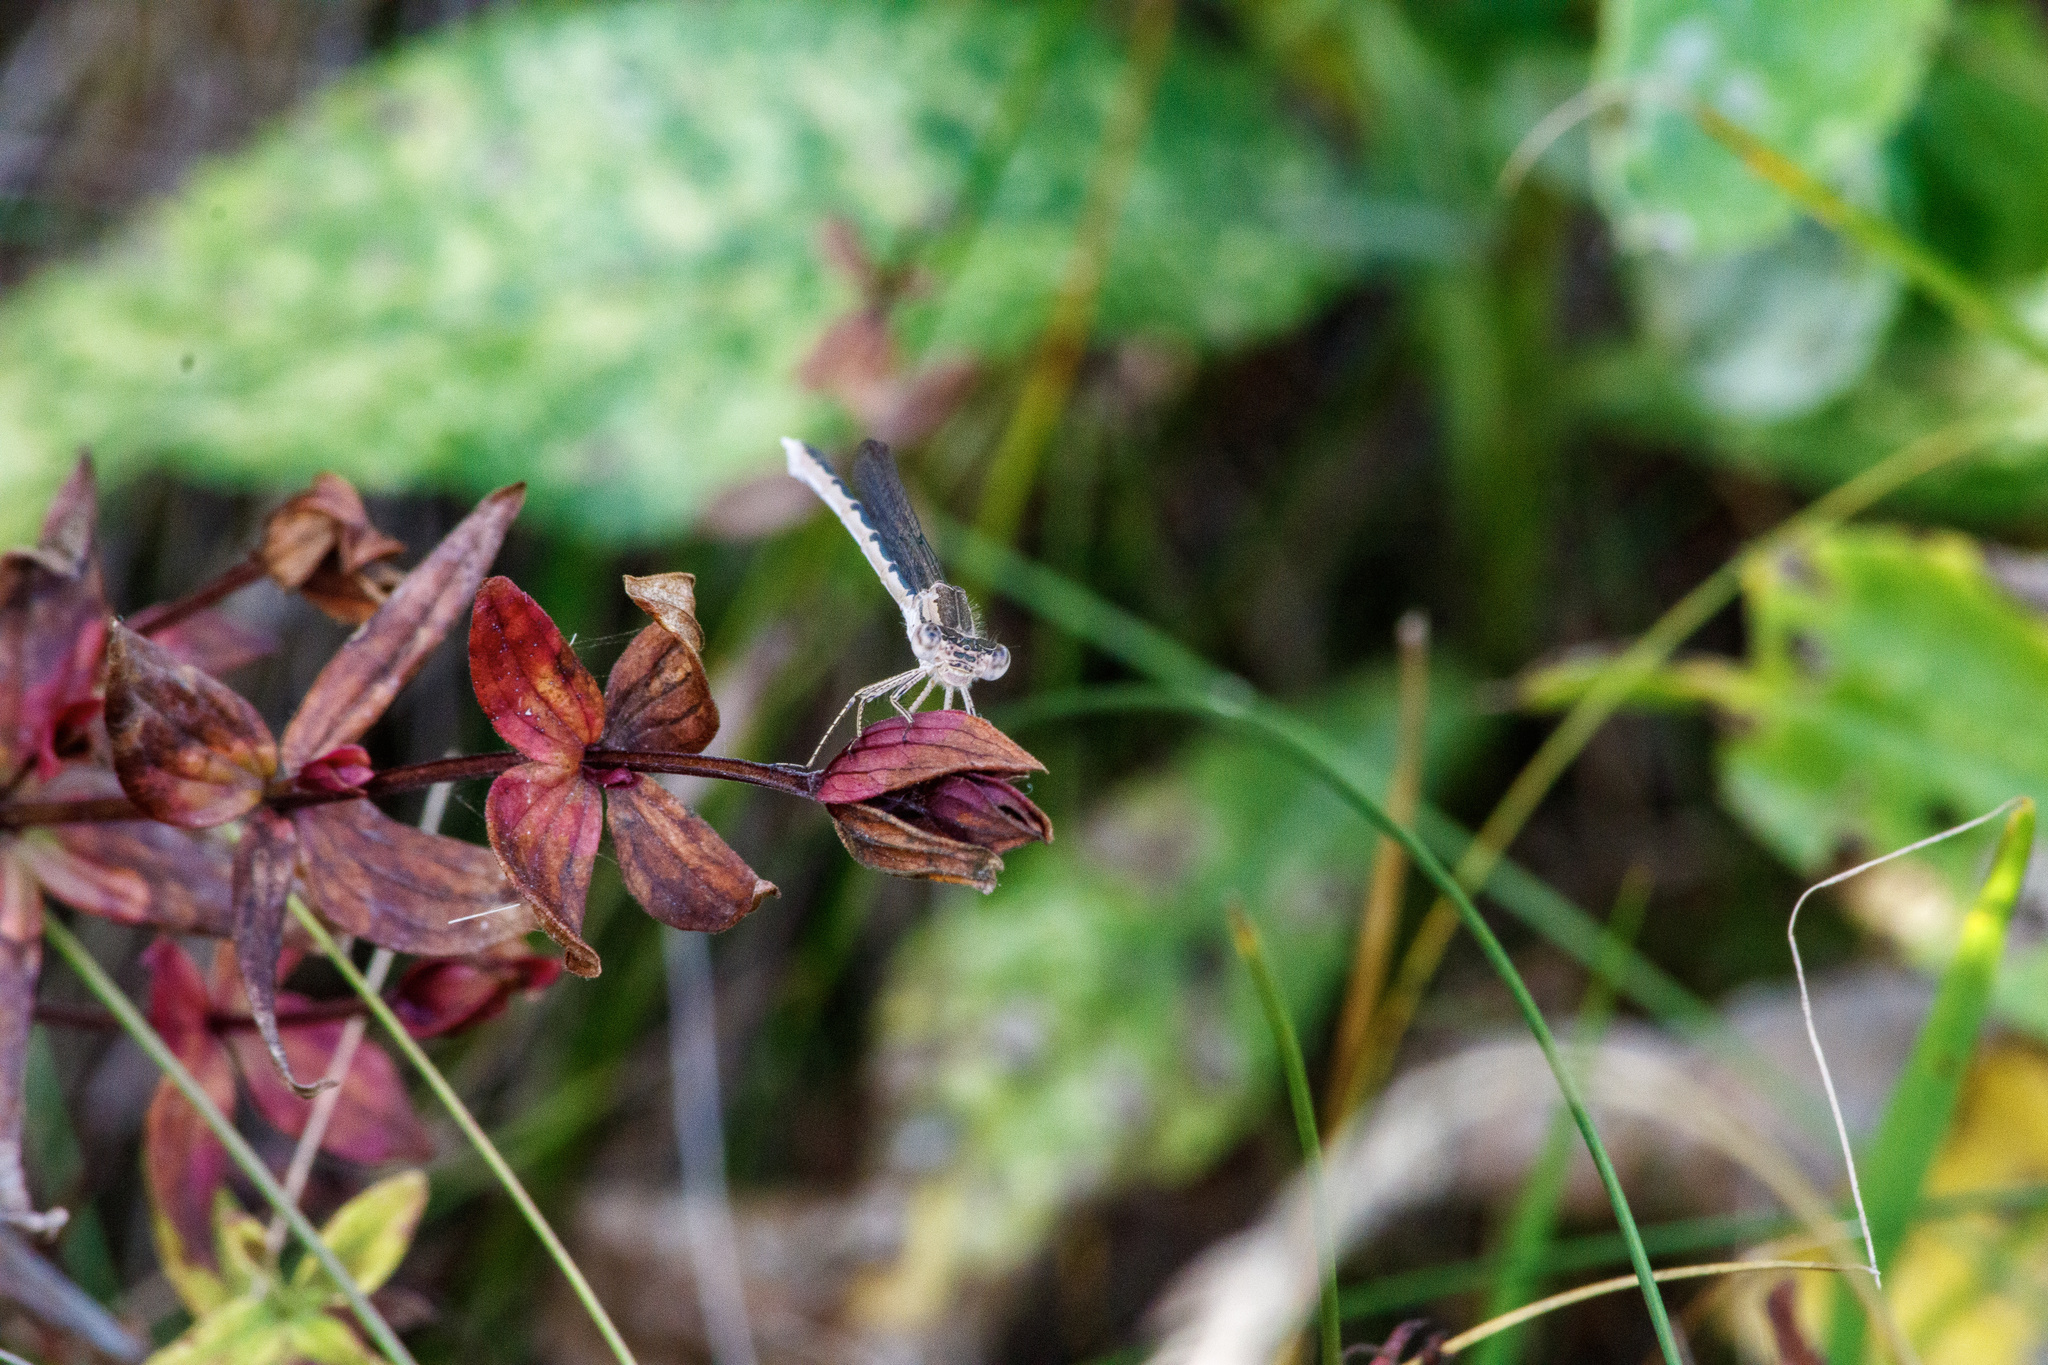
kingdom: Animalia
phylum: Arthropoda
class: Insecta
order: Odonata
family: Lestidae
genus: Sympecma
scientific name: Sympecma paedisca
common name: Siberian winter damsel
